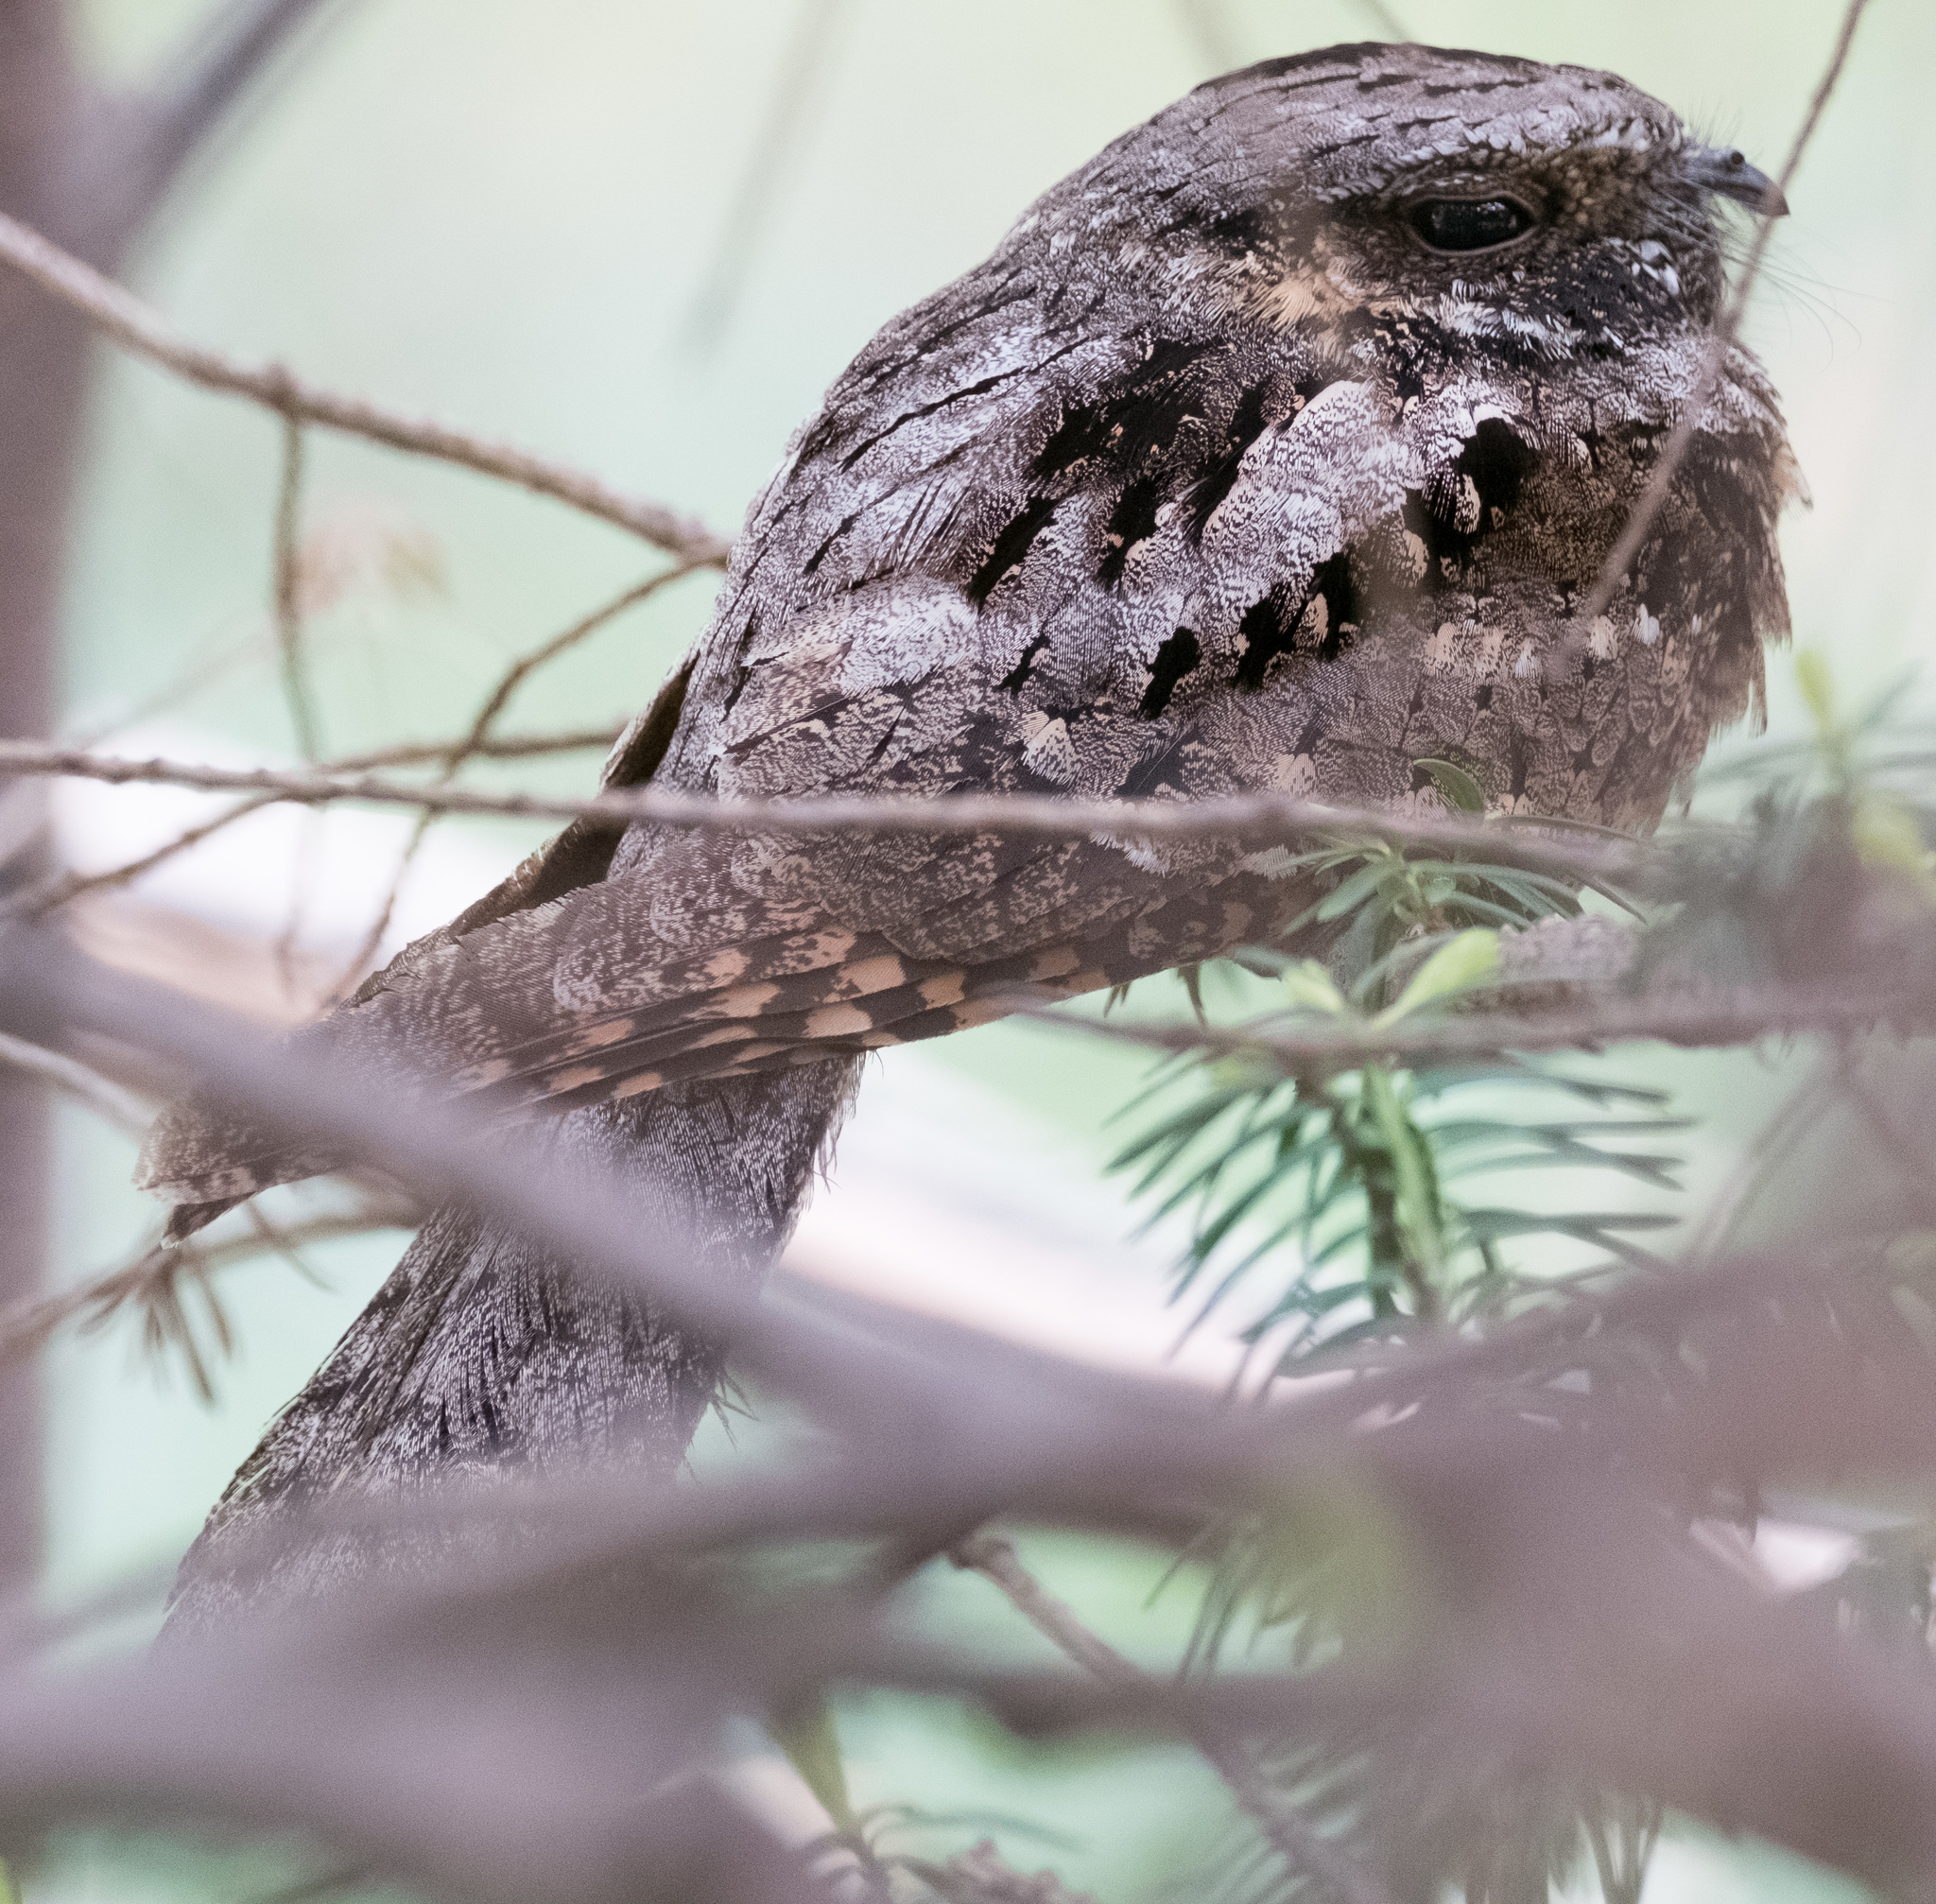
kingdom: Animalia
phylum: Chordata
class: Aves
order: Caprimulgiformes
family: Caprimulgidae
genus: Antrostomus
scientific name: Antrostomus vociferus
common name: Eastern whip-poor-will
